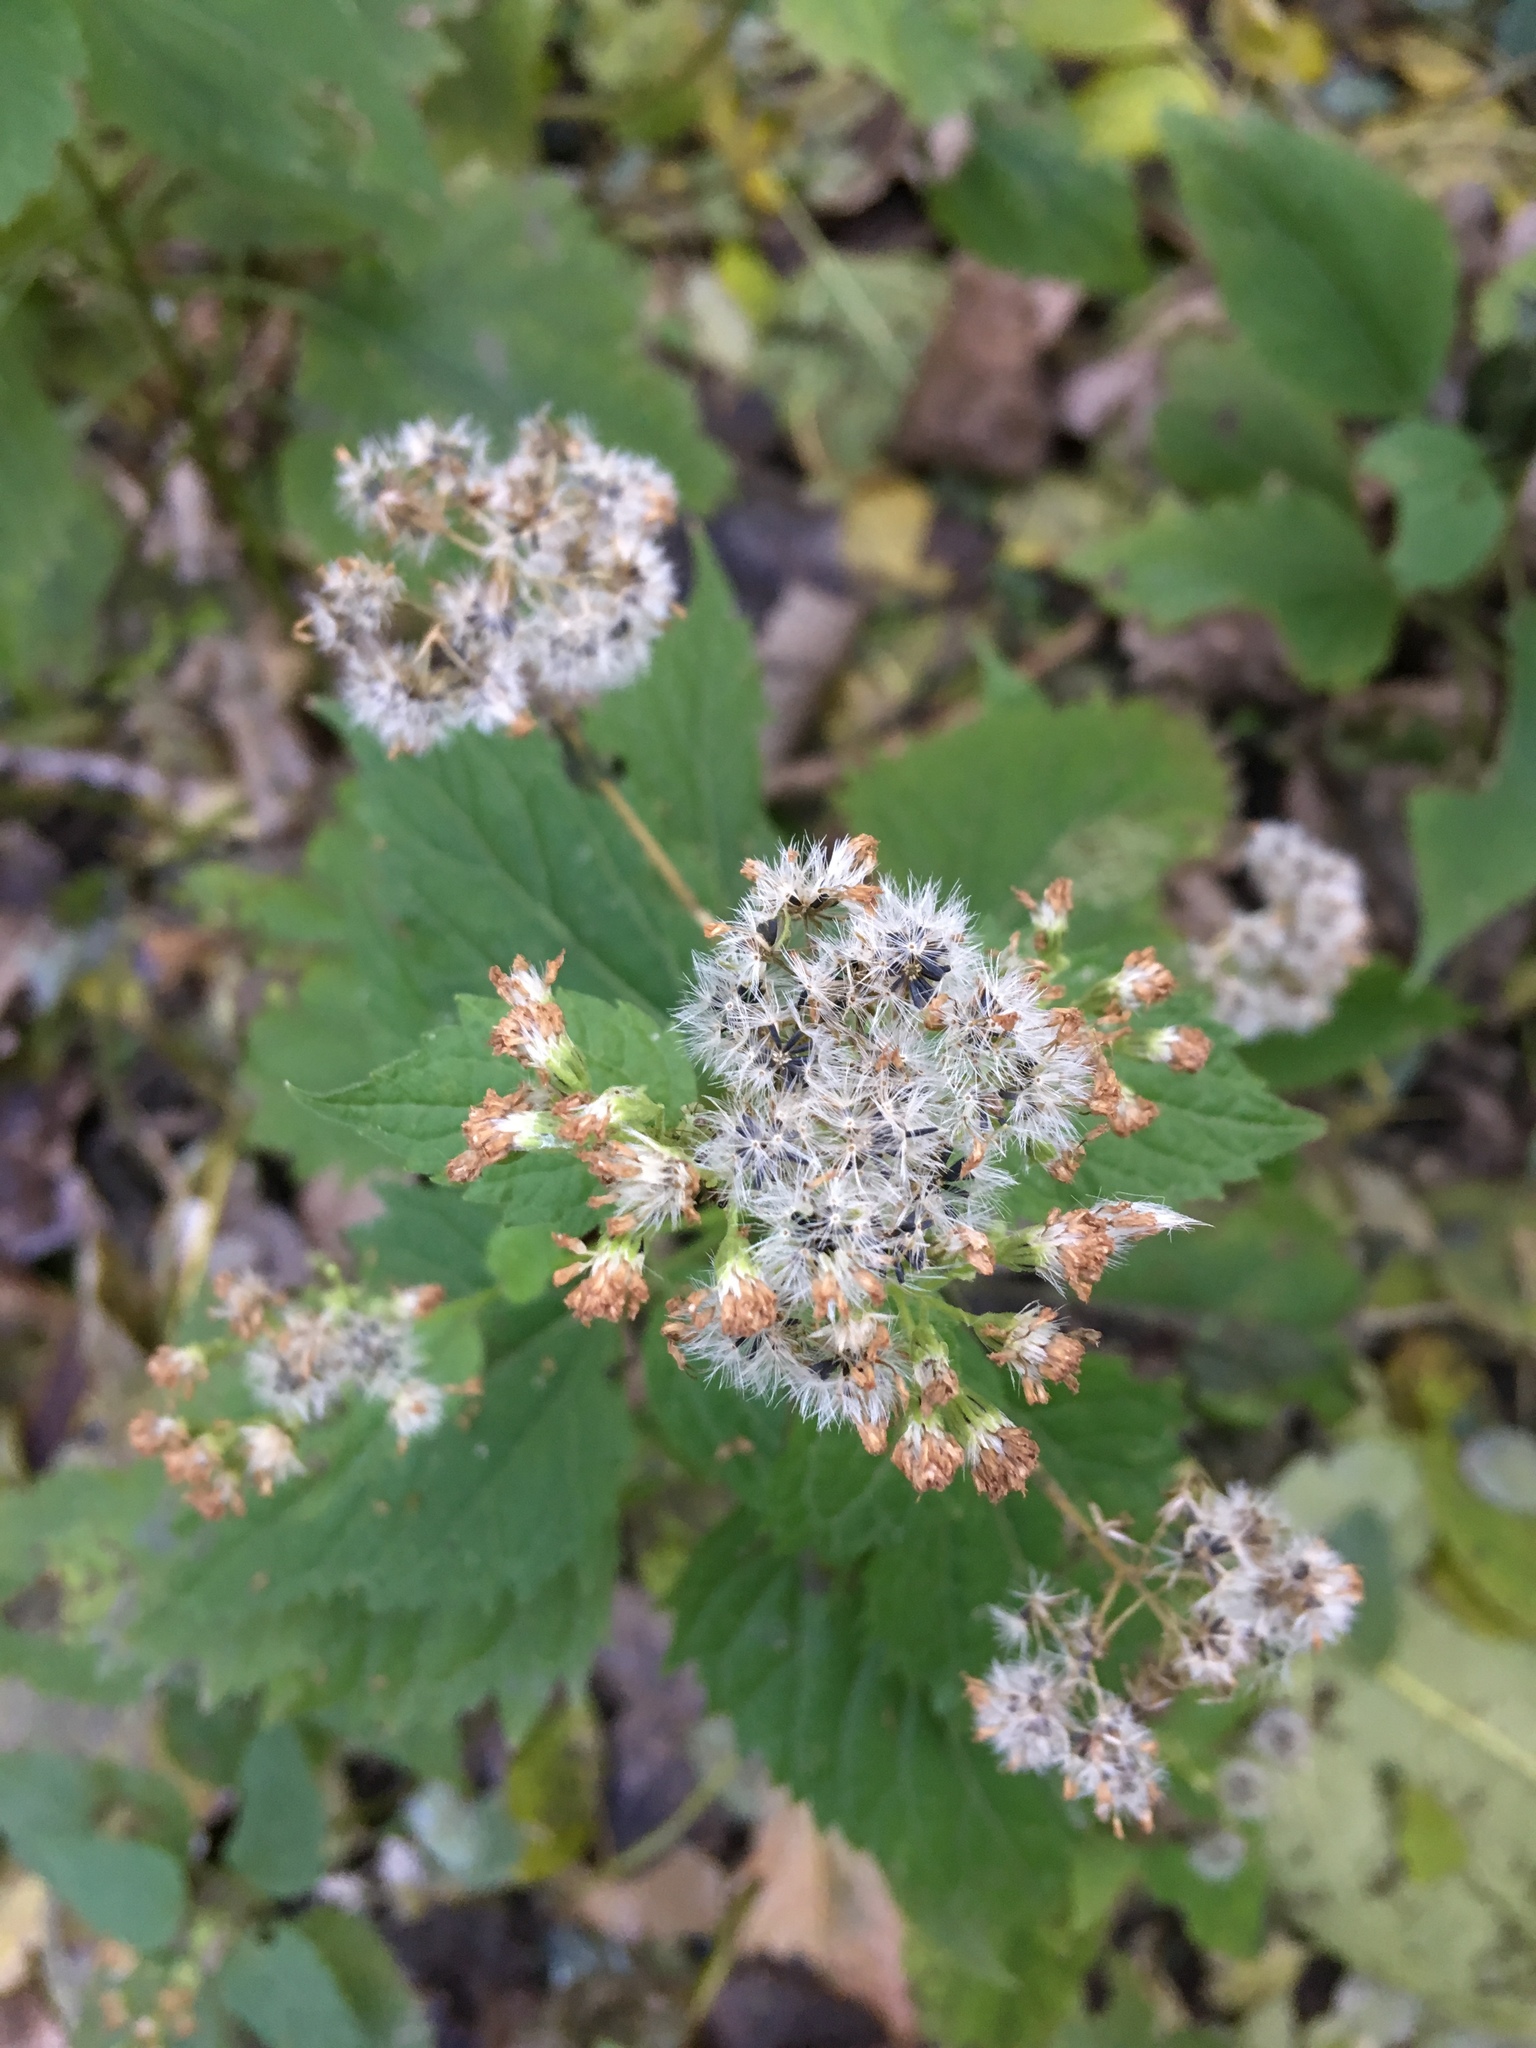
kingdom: Plantae
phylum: Tracheophyta
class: Magnoliopsida
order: Asterales
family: Asteraceae
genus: Ageratina
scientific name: Ageratina altissima
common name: White snakeroot
